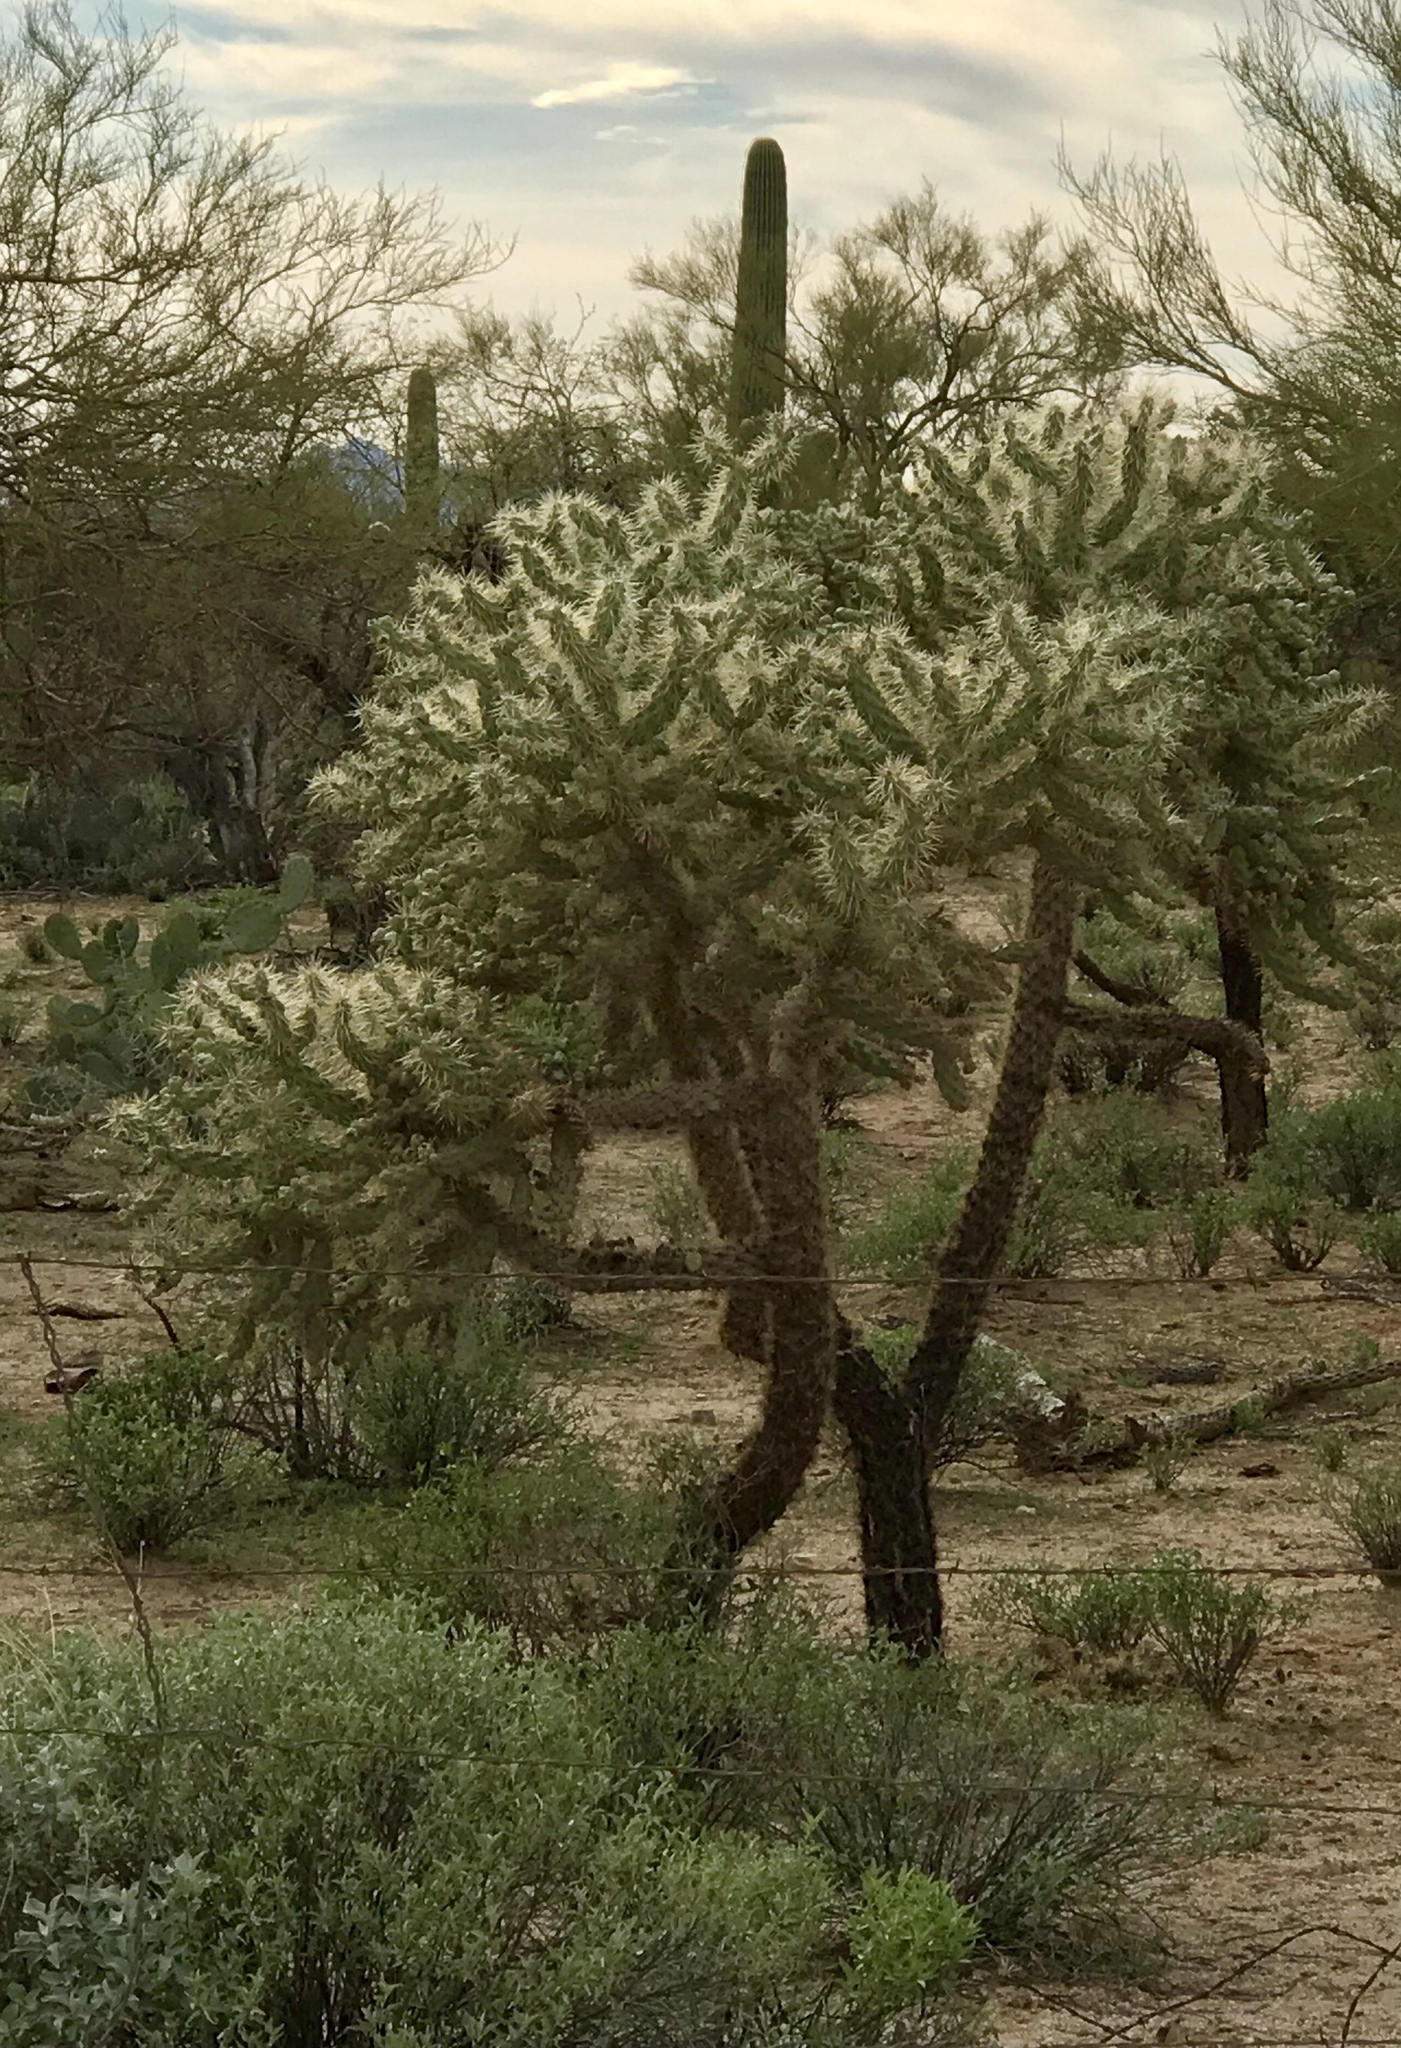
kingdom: Plantae
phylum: Tracheophyta
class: Magnoliopsida
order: Caryophyllales
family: Cactaceae
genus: Cylindropuntia
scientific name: Cylindropuntia fulgida
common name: Jumping cholla
